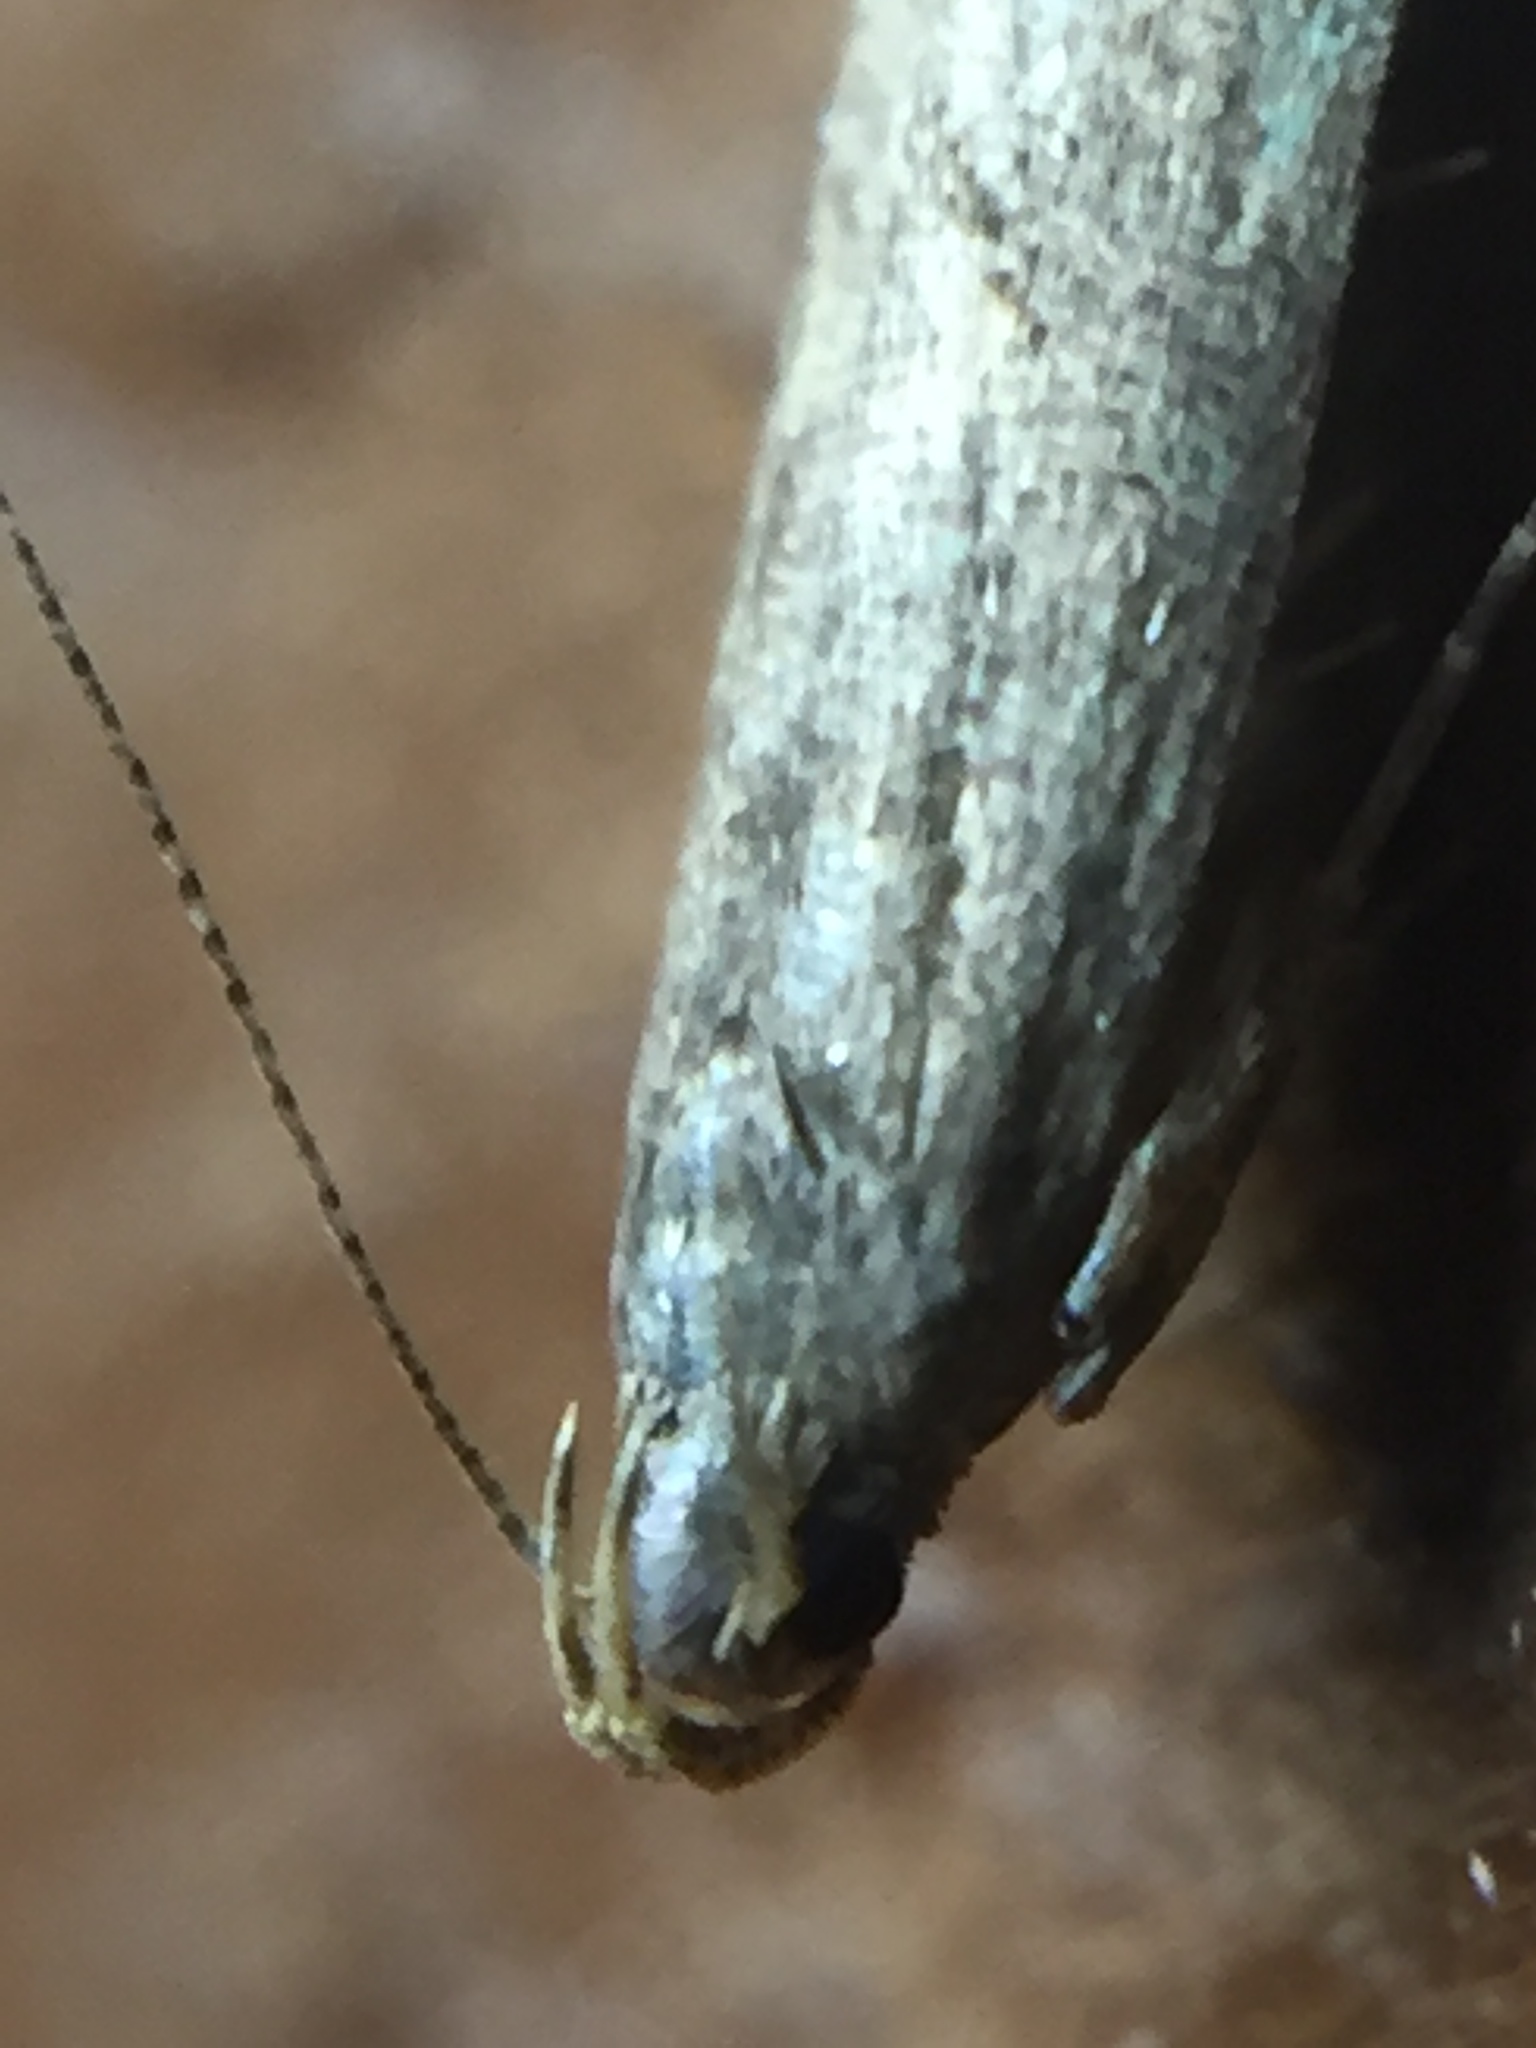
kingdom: Animalia
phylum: Arthropoda
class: Insecta
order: Lepidoptera
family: Gelechiidae
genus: Bilobata
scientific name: Bilobata subsecivella
